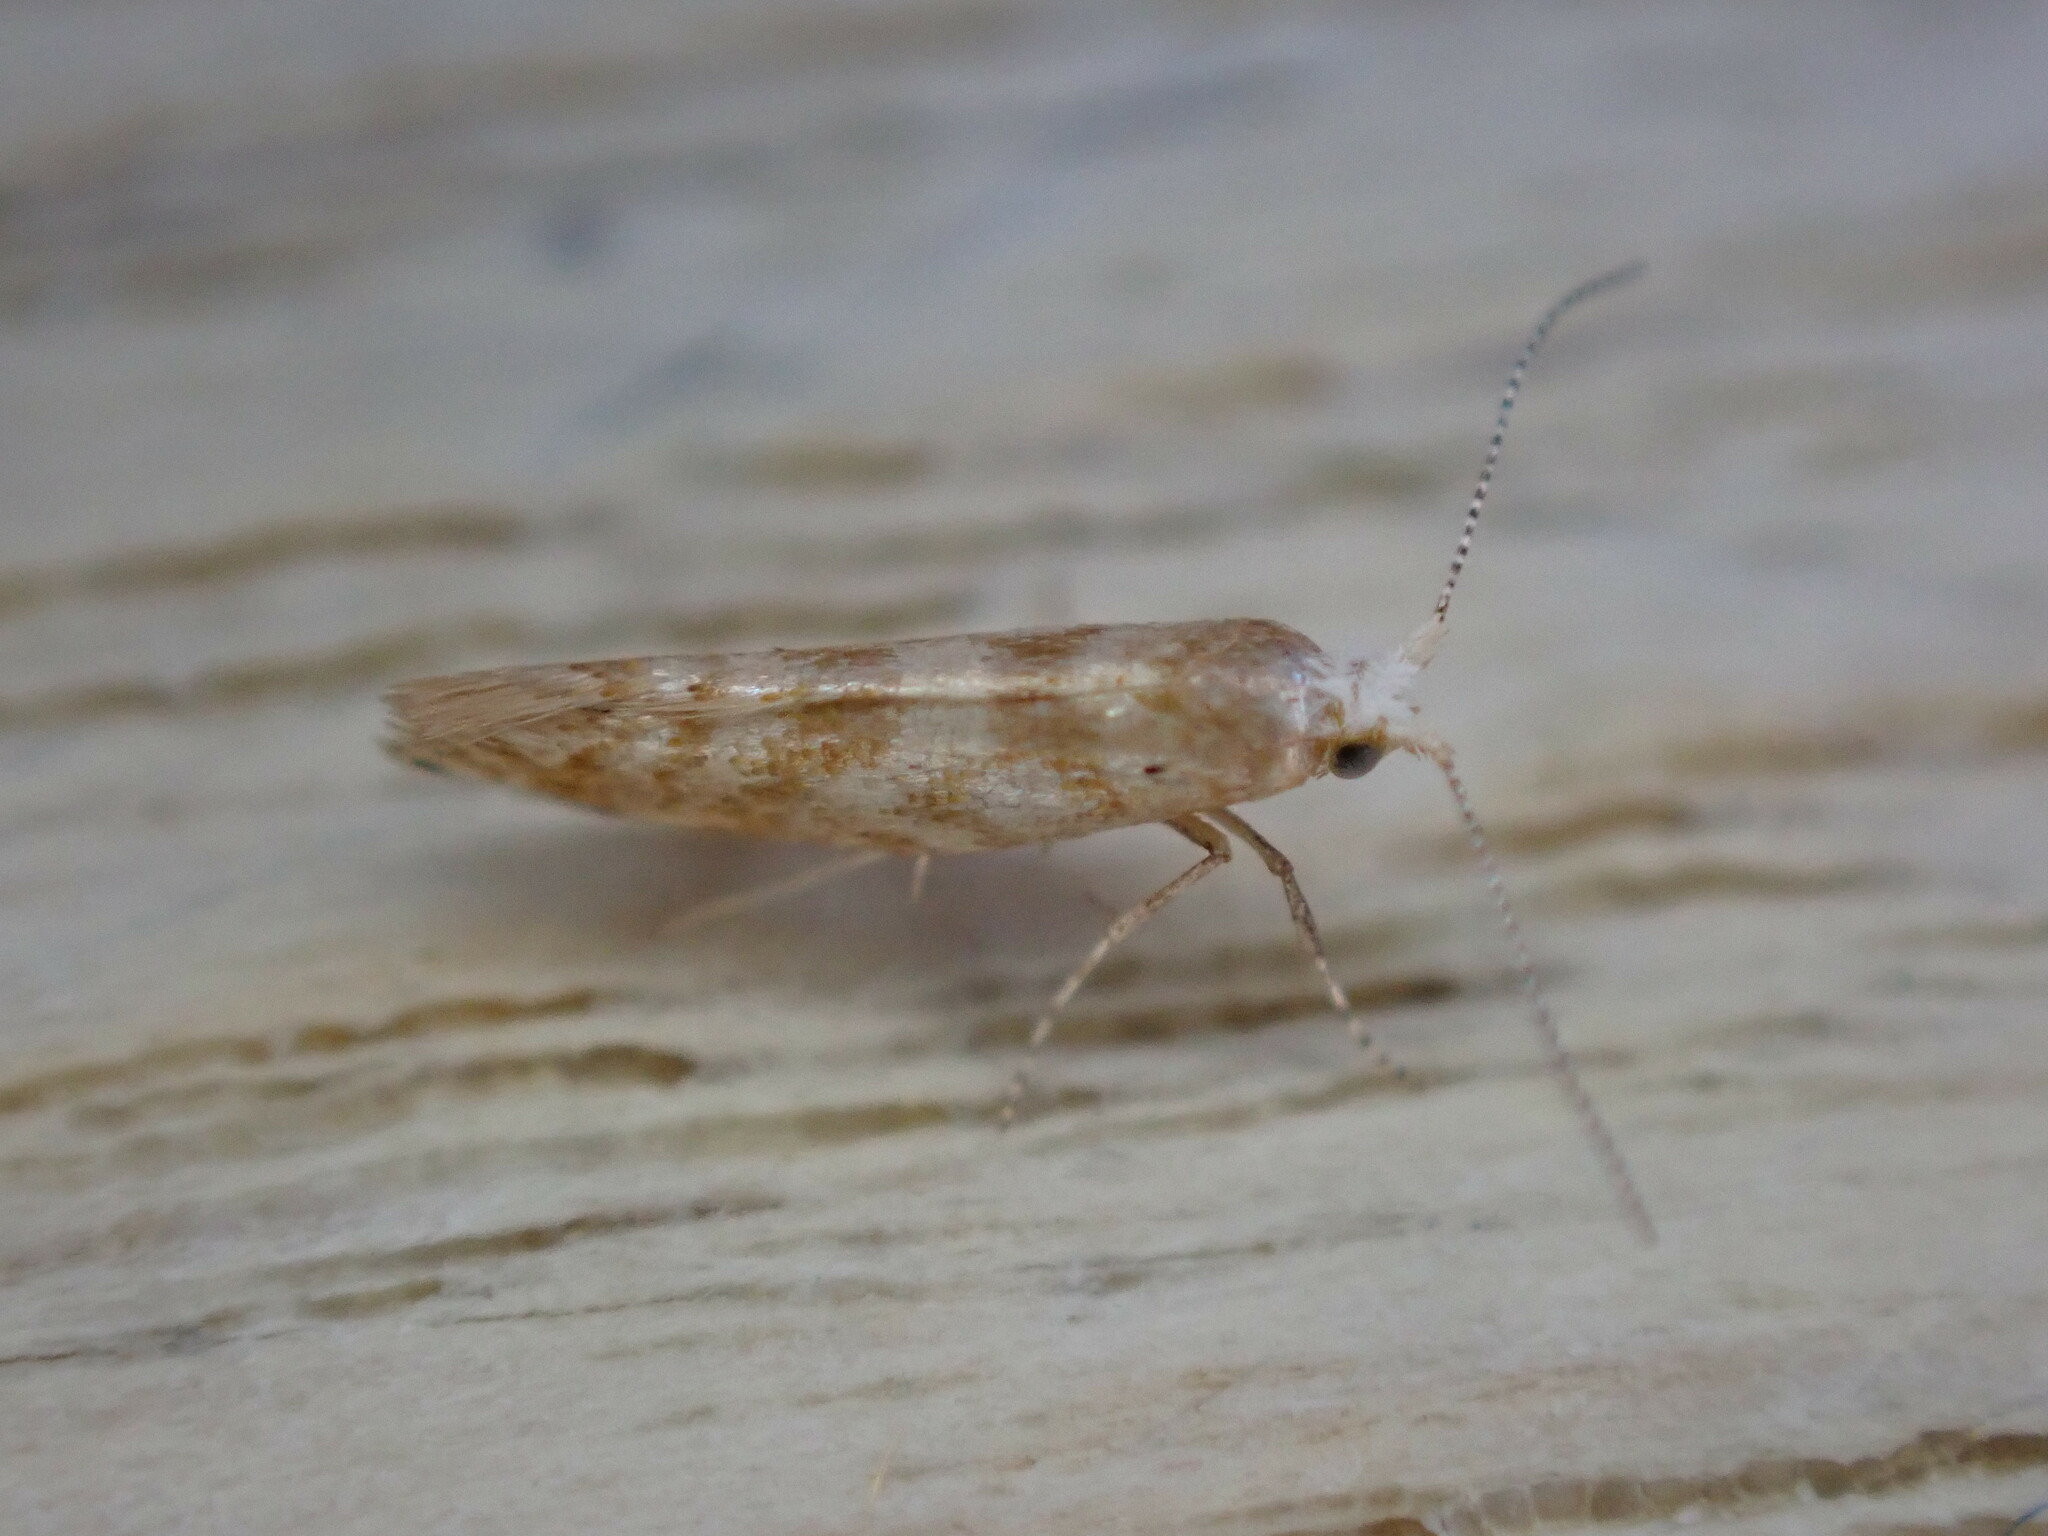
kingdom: Animalia
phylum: Arthropoda
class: Insecta
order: Lepidoptera
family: Argyresthiidae
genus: Argyresthia
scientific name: Argyresthia cupressella
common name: Cypress tip moth
